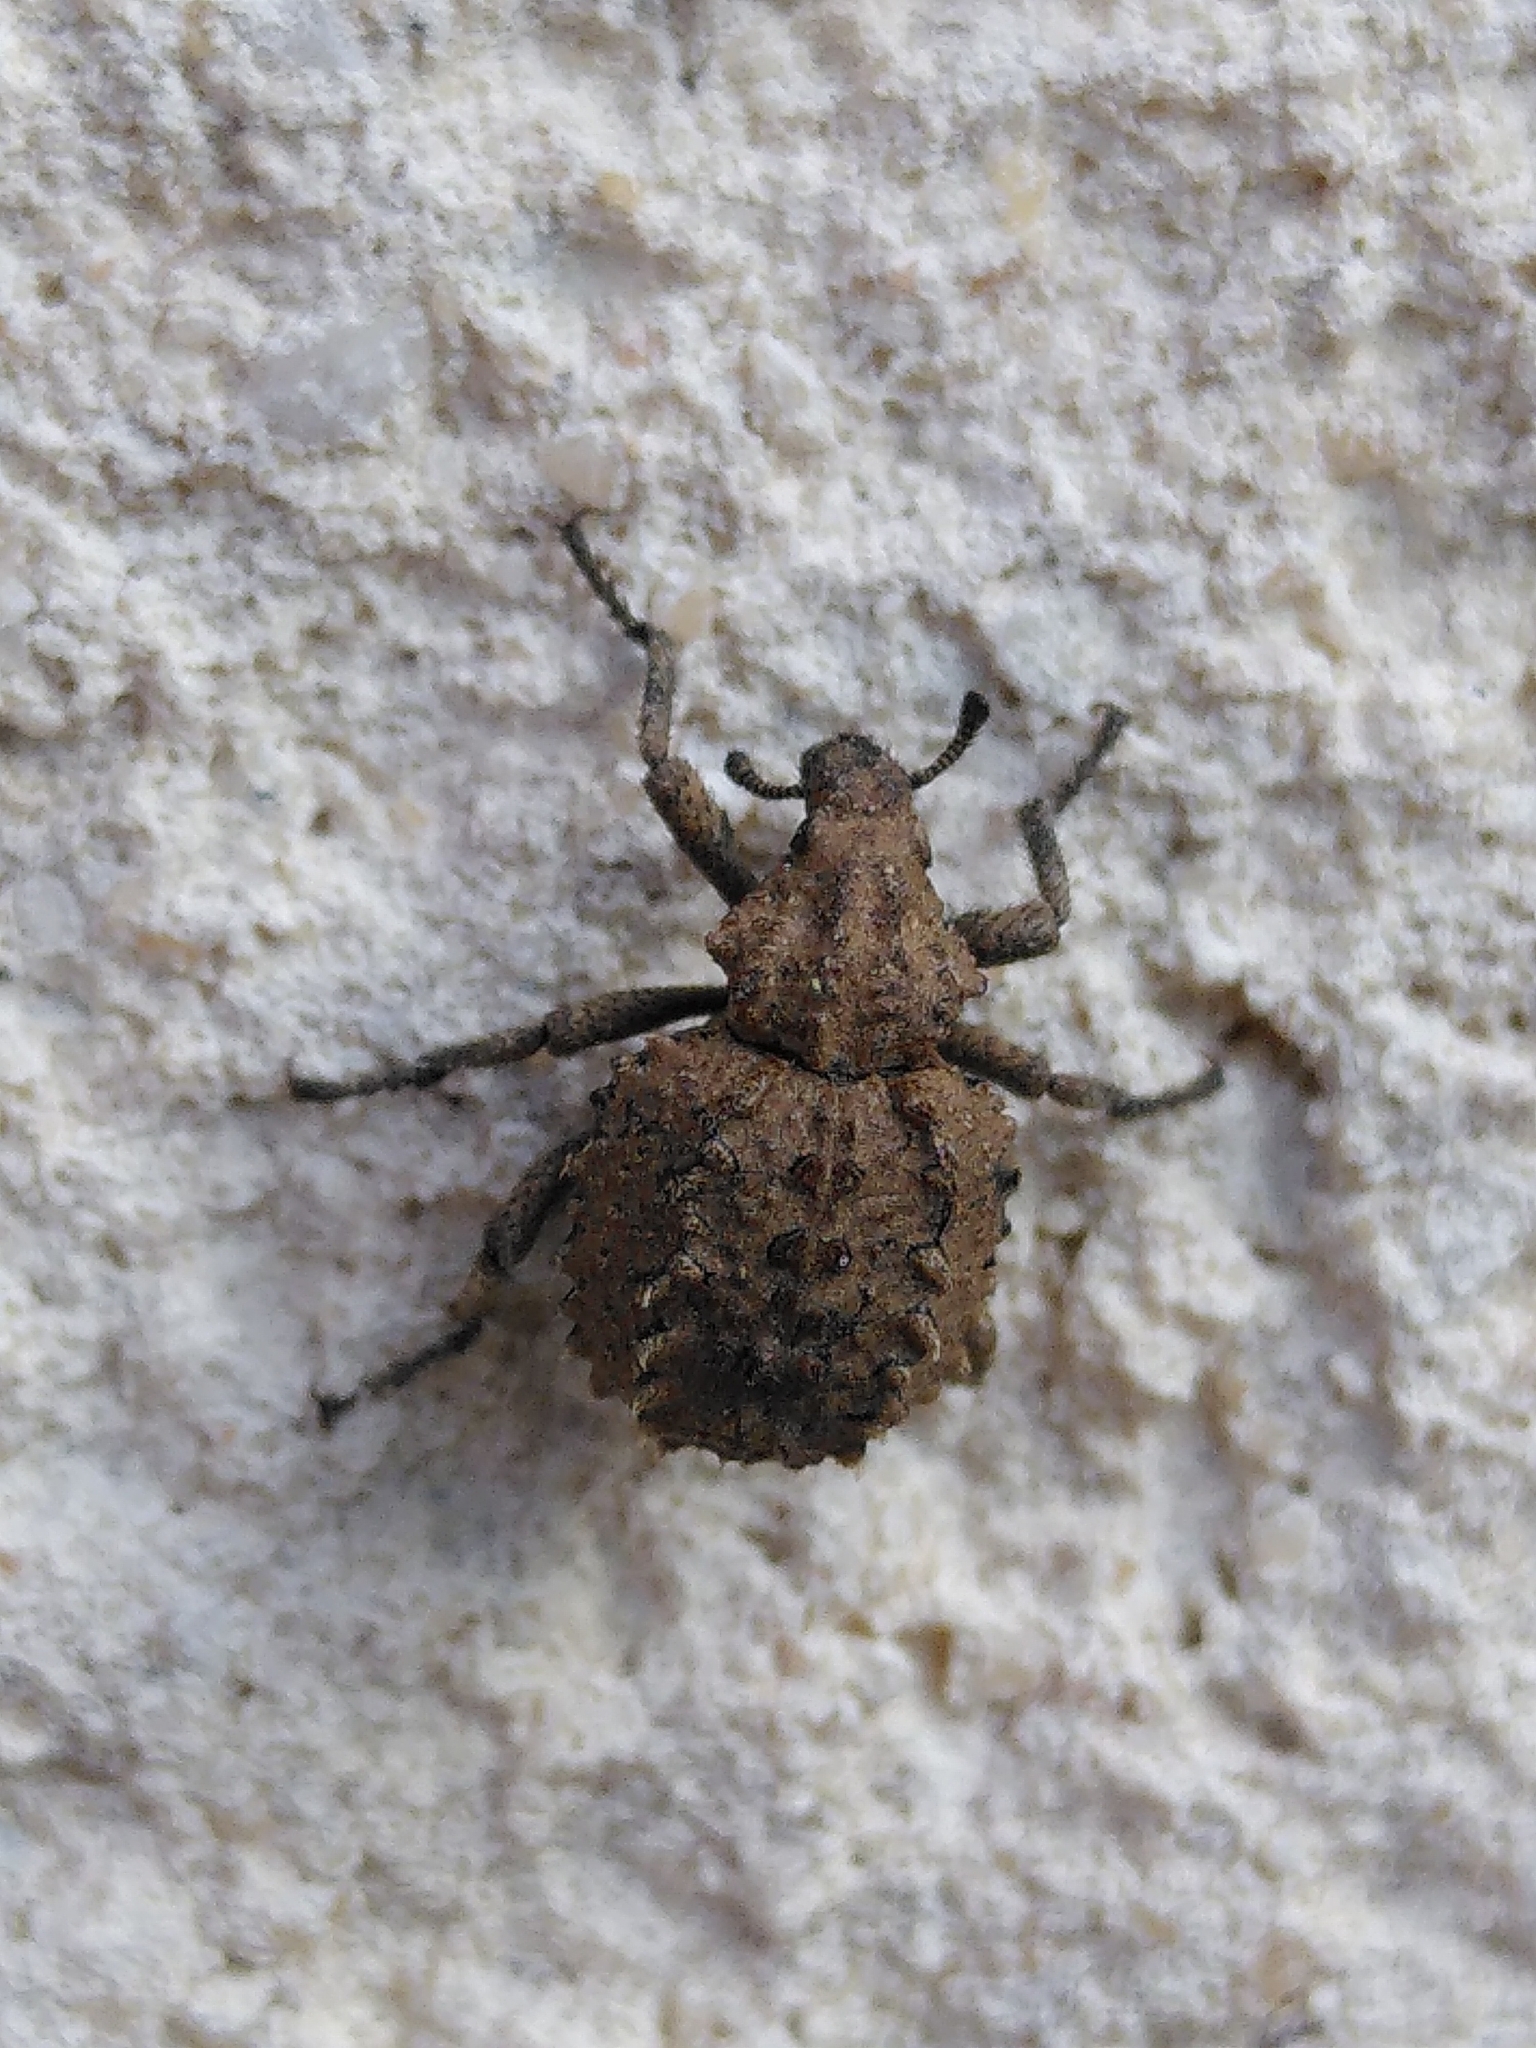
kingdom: Animalia
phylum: Arthropoda
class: Insecta
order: Coleoptera
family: Brachyceridae
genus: Brachycerus
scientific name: Brachycerus muricatus
